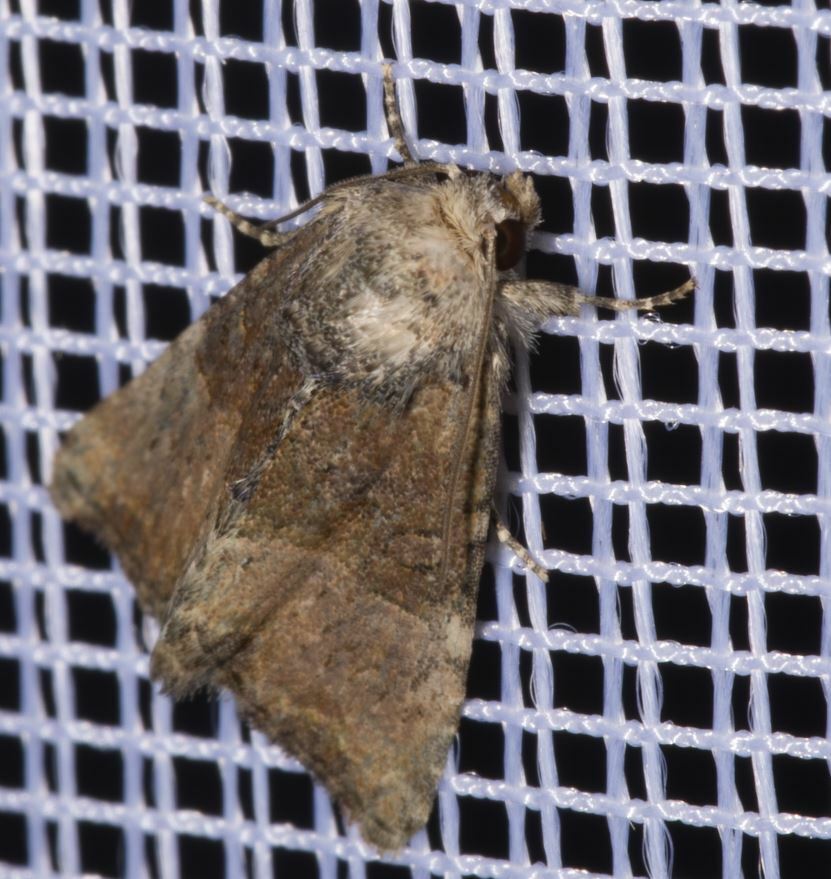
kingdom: Animalia
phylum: Arthropoda
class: Insecta
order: Lepidoptera
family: Noctuidae
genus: Mesoligia
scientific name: Mesoligia furuncula
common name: Cloaked minor
